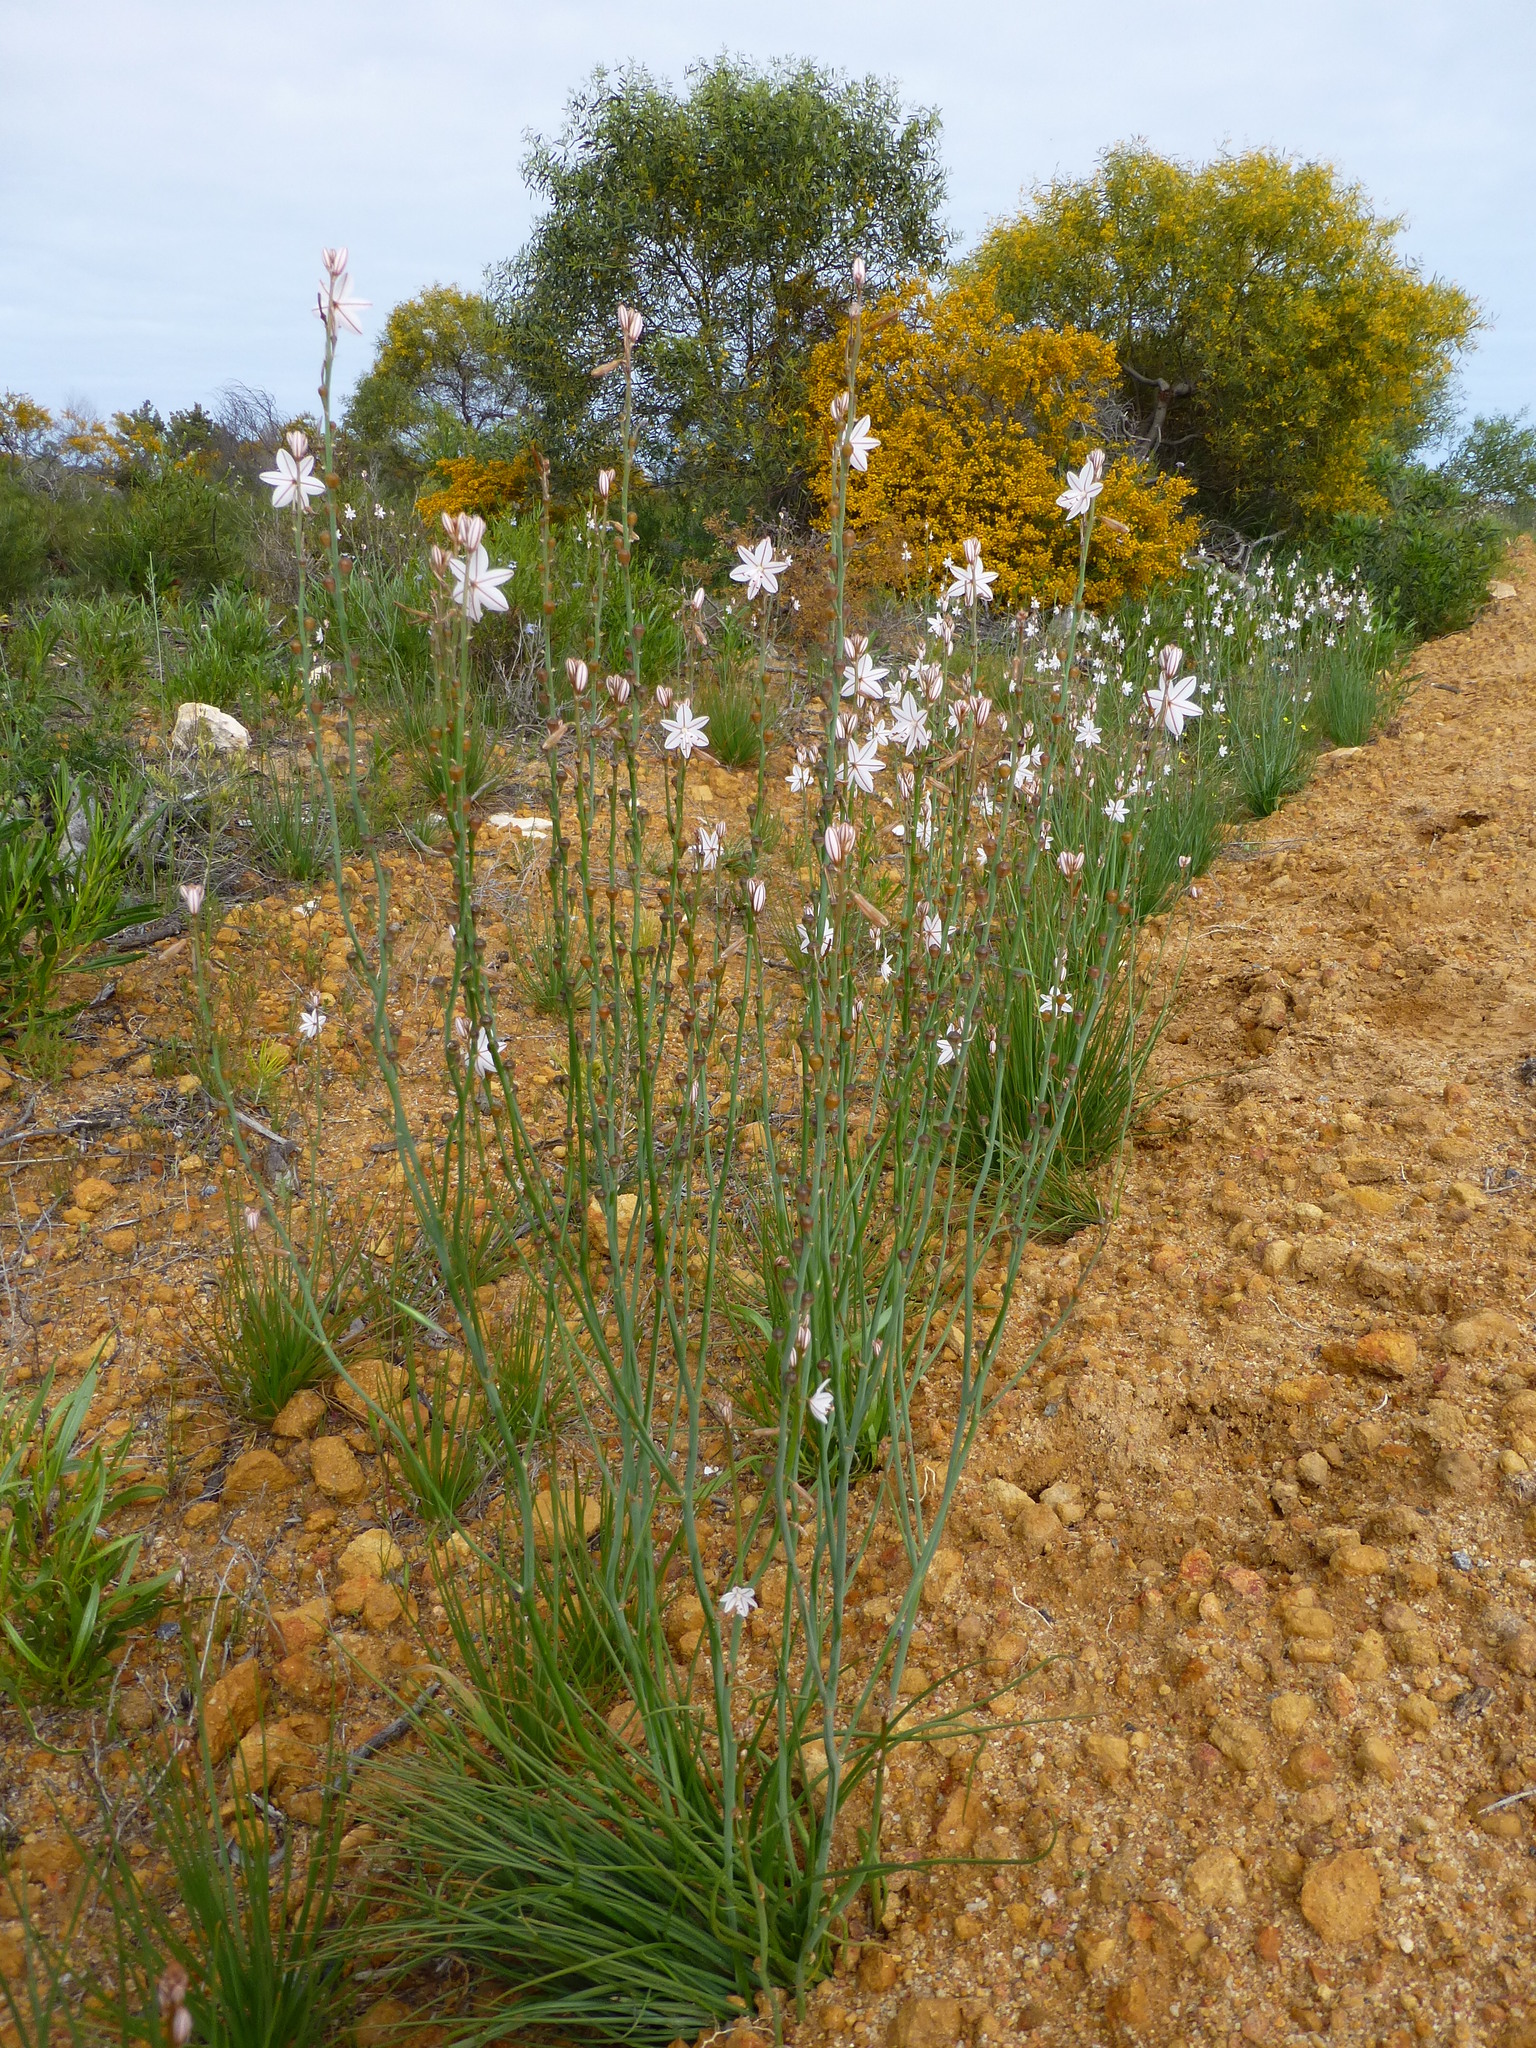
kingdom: Plantae
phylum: Tracheophyta
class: Liliopsida
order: Asparagales
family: Asphodelaceae
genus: Asphodelus
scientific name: Asphodelus fistulosus
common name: Onionweed
